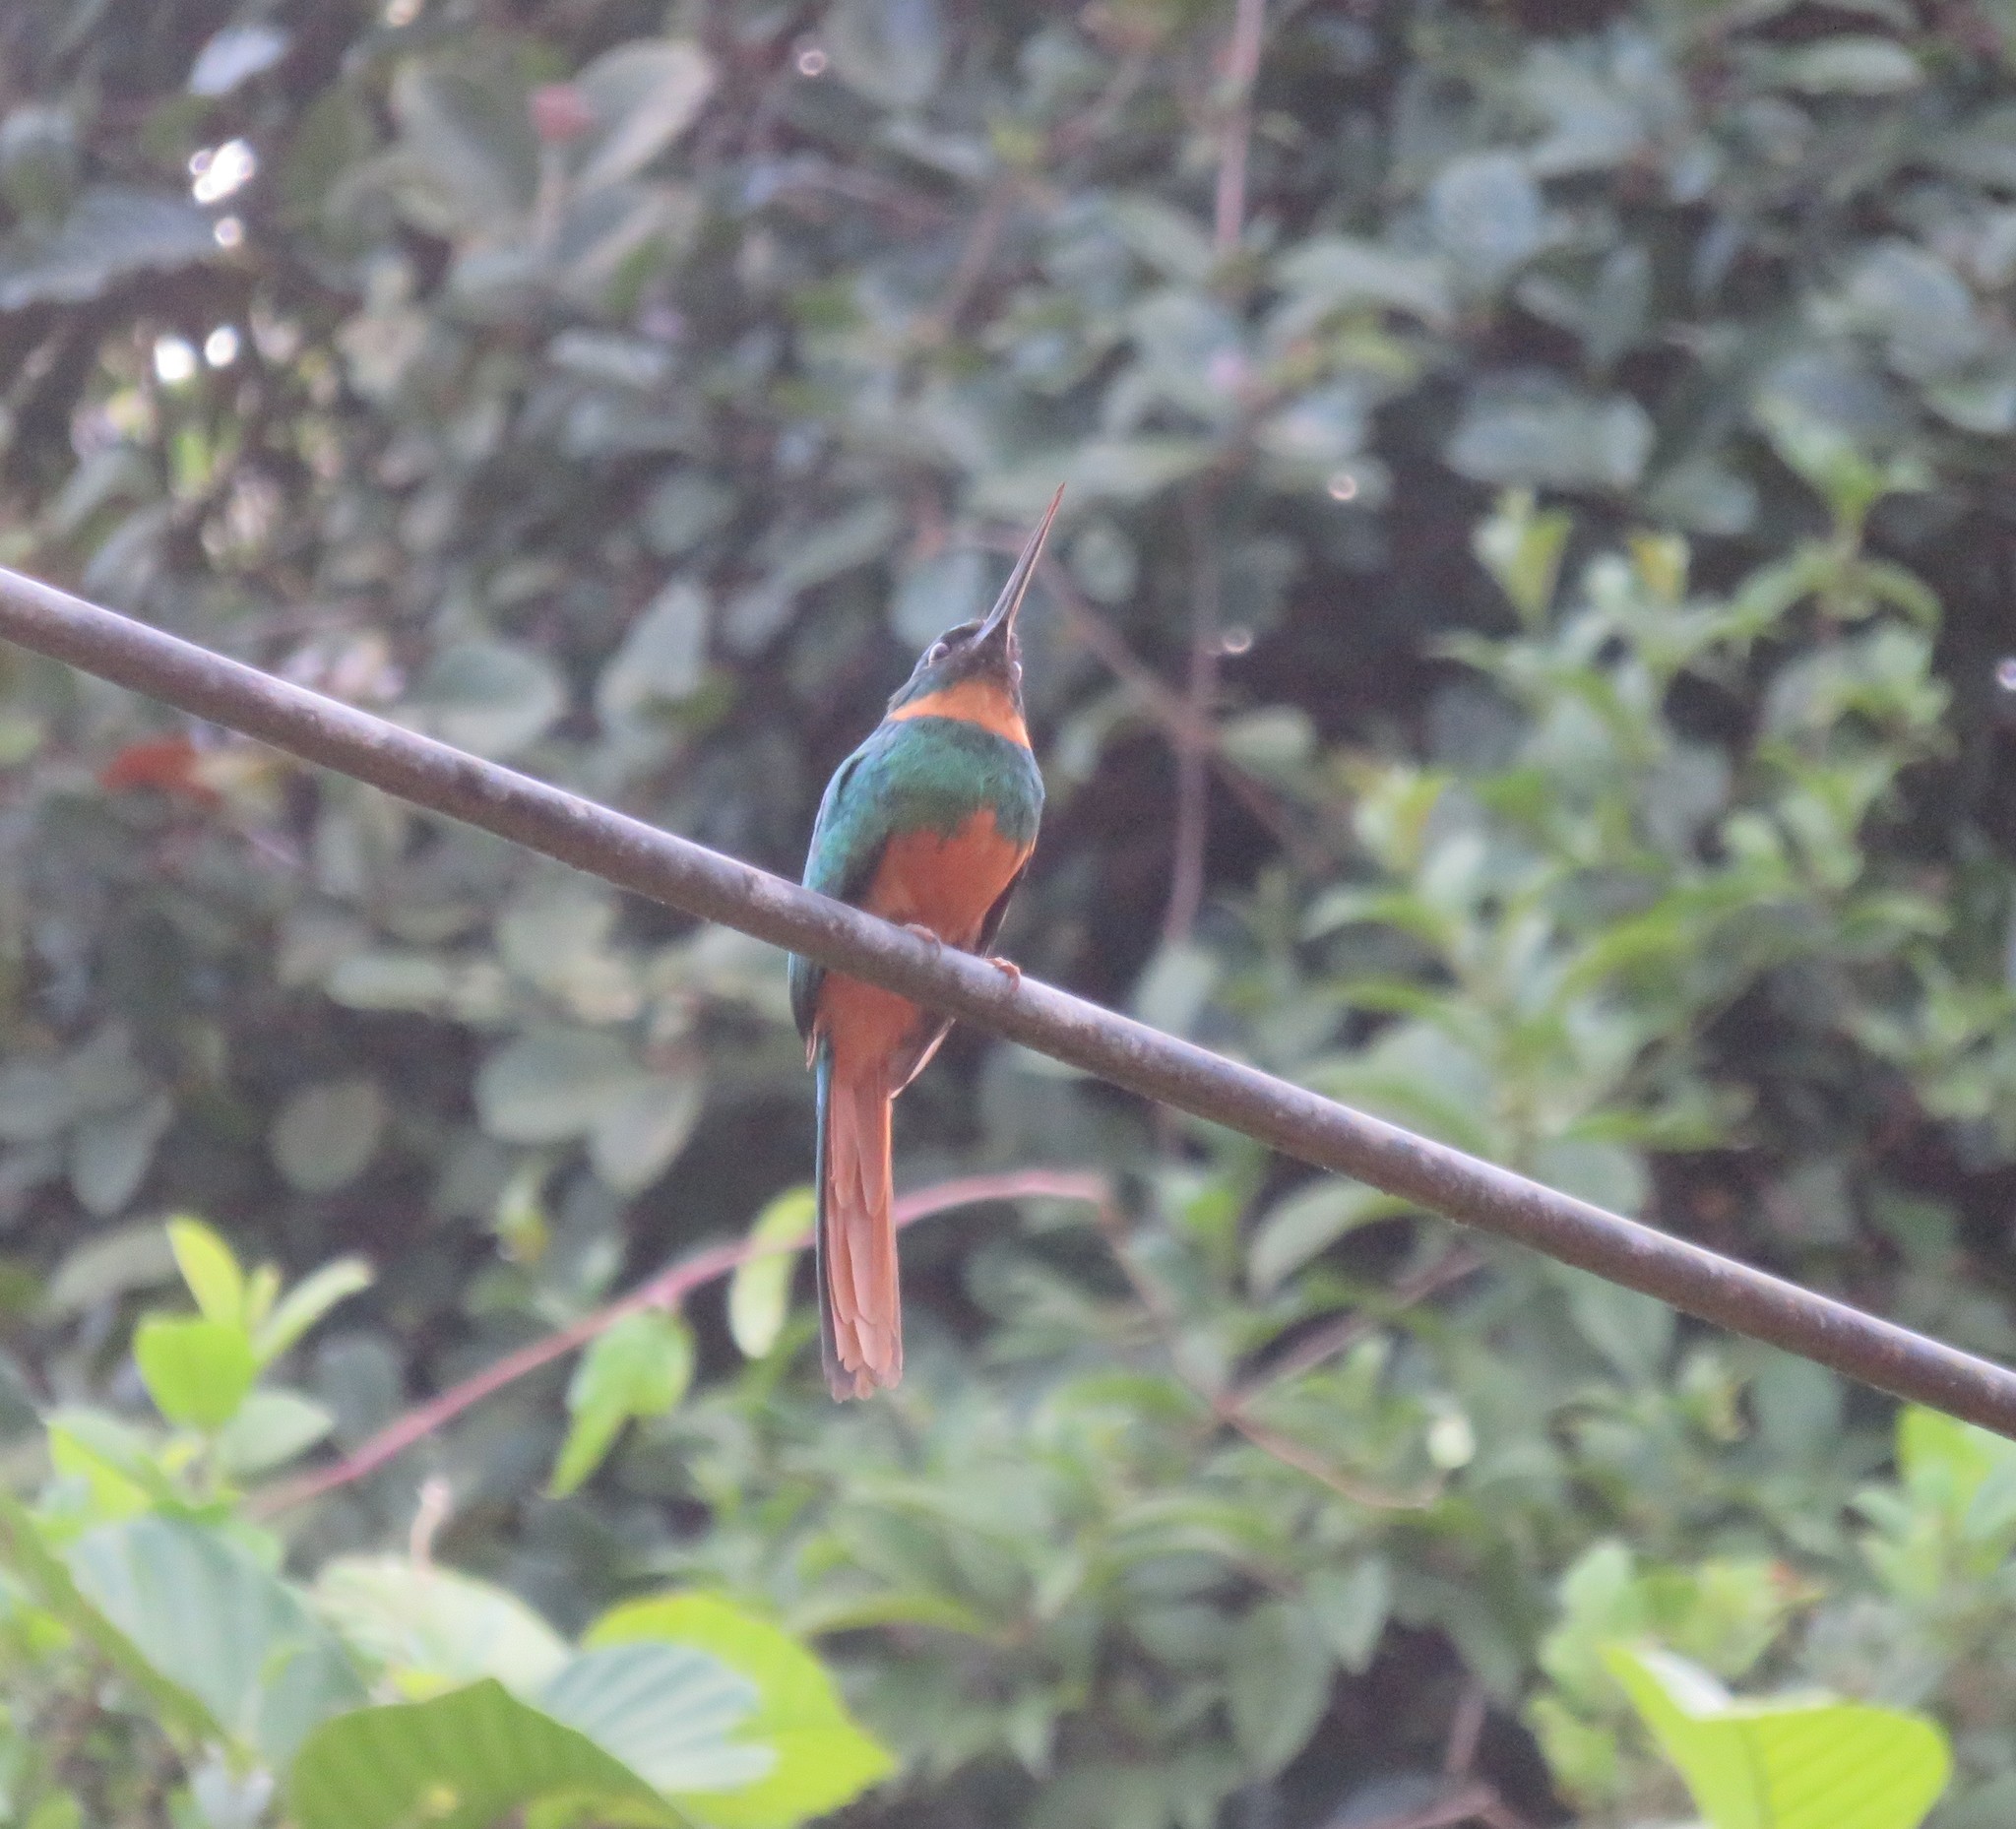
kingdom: Animalia
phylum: Chordata
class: Aves
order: Piciformes
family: Galbulidae
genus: Galbula
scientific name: Galbula ruficauda
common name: Rufous-tailed jacamar
